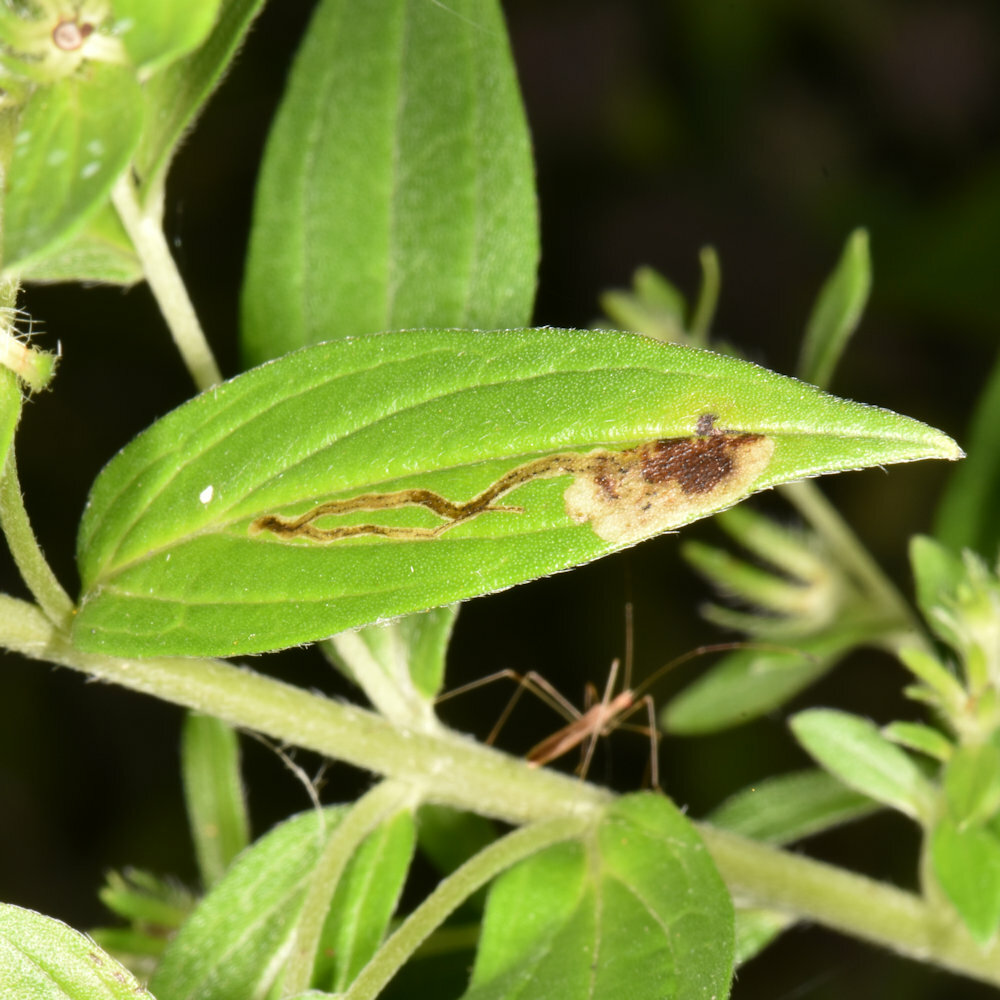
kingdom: Animalia
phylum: Arthropoda
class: Insecta
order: Diptera
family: Agromyzidae
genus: Calycomyza
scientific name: Calycomyza cynoglossi
